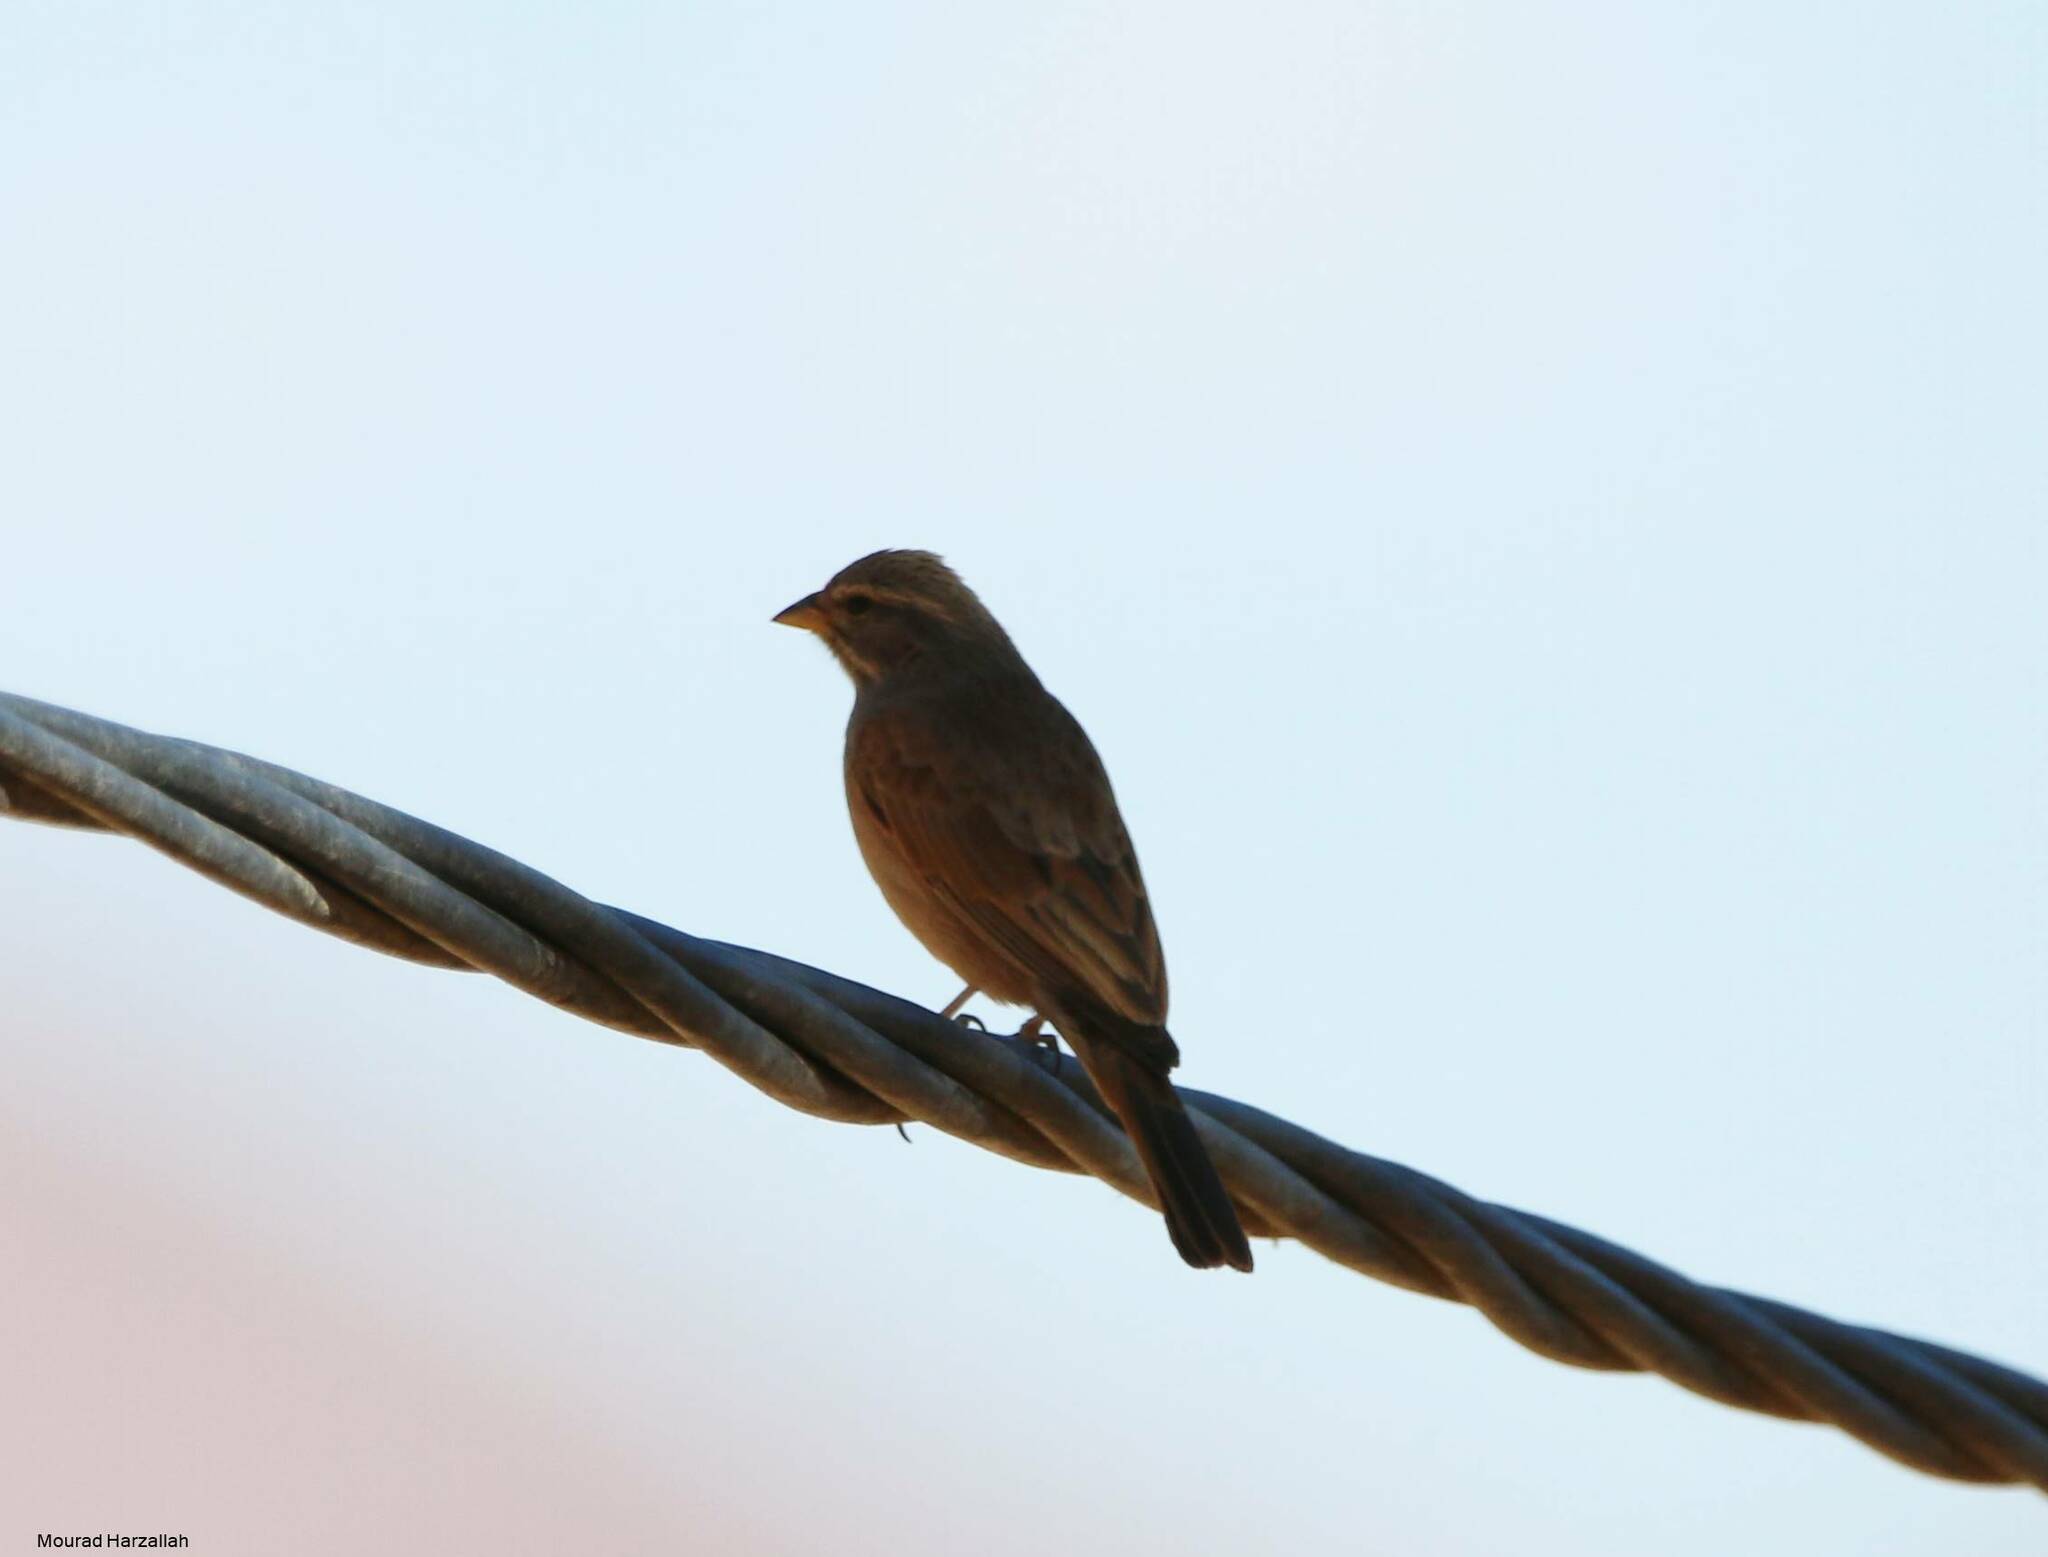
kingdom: Animalia
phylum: Chordata
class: Aves
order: Passeriformes
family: Emberizidae
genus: Emberiza
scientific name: Emberiza sahari
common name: House bunting
